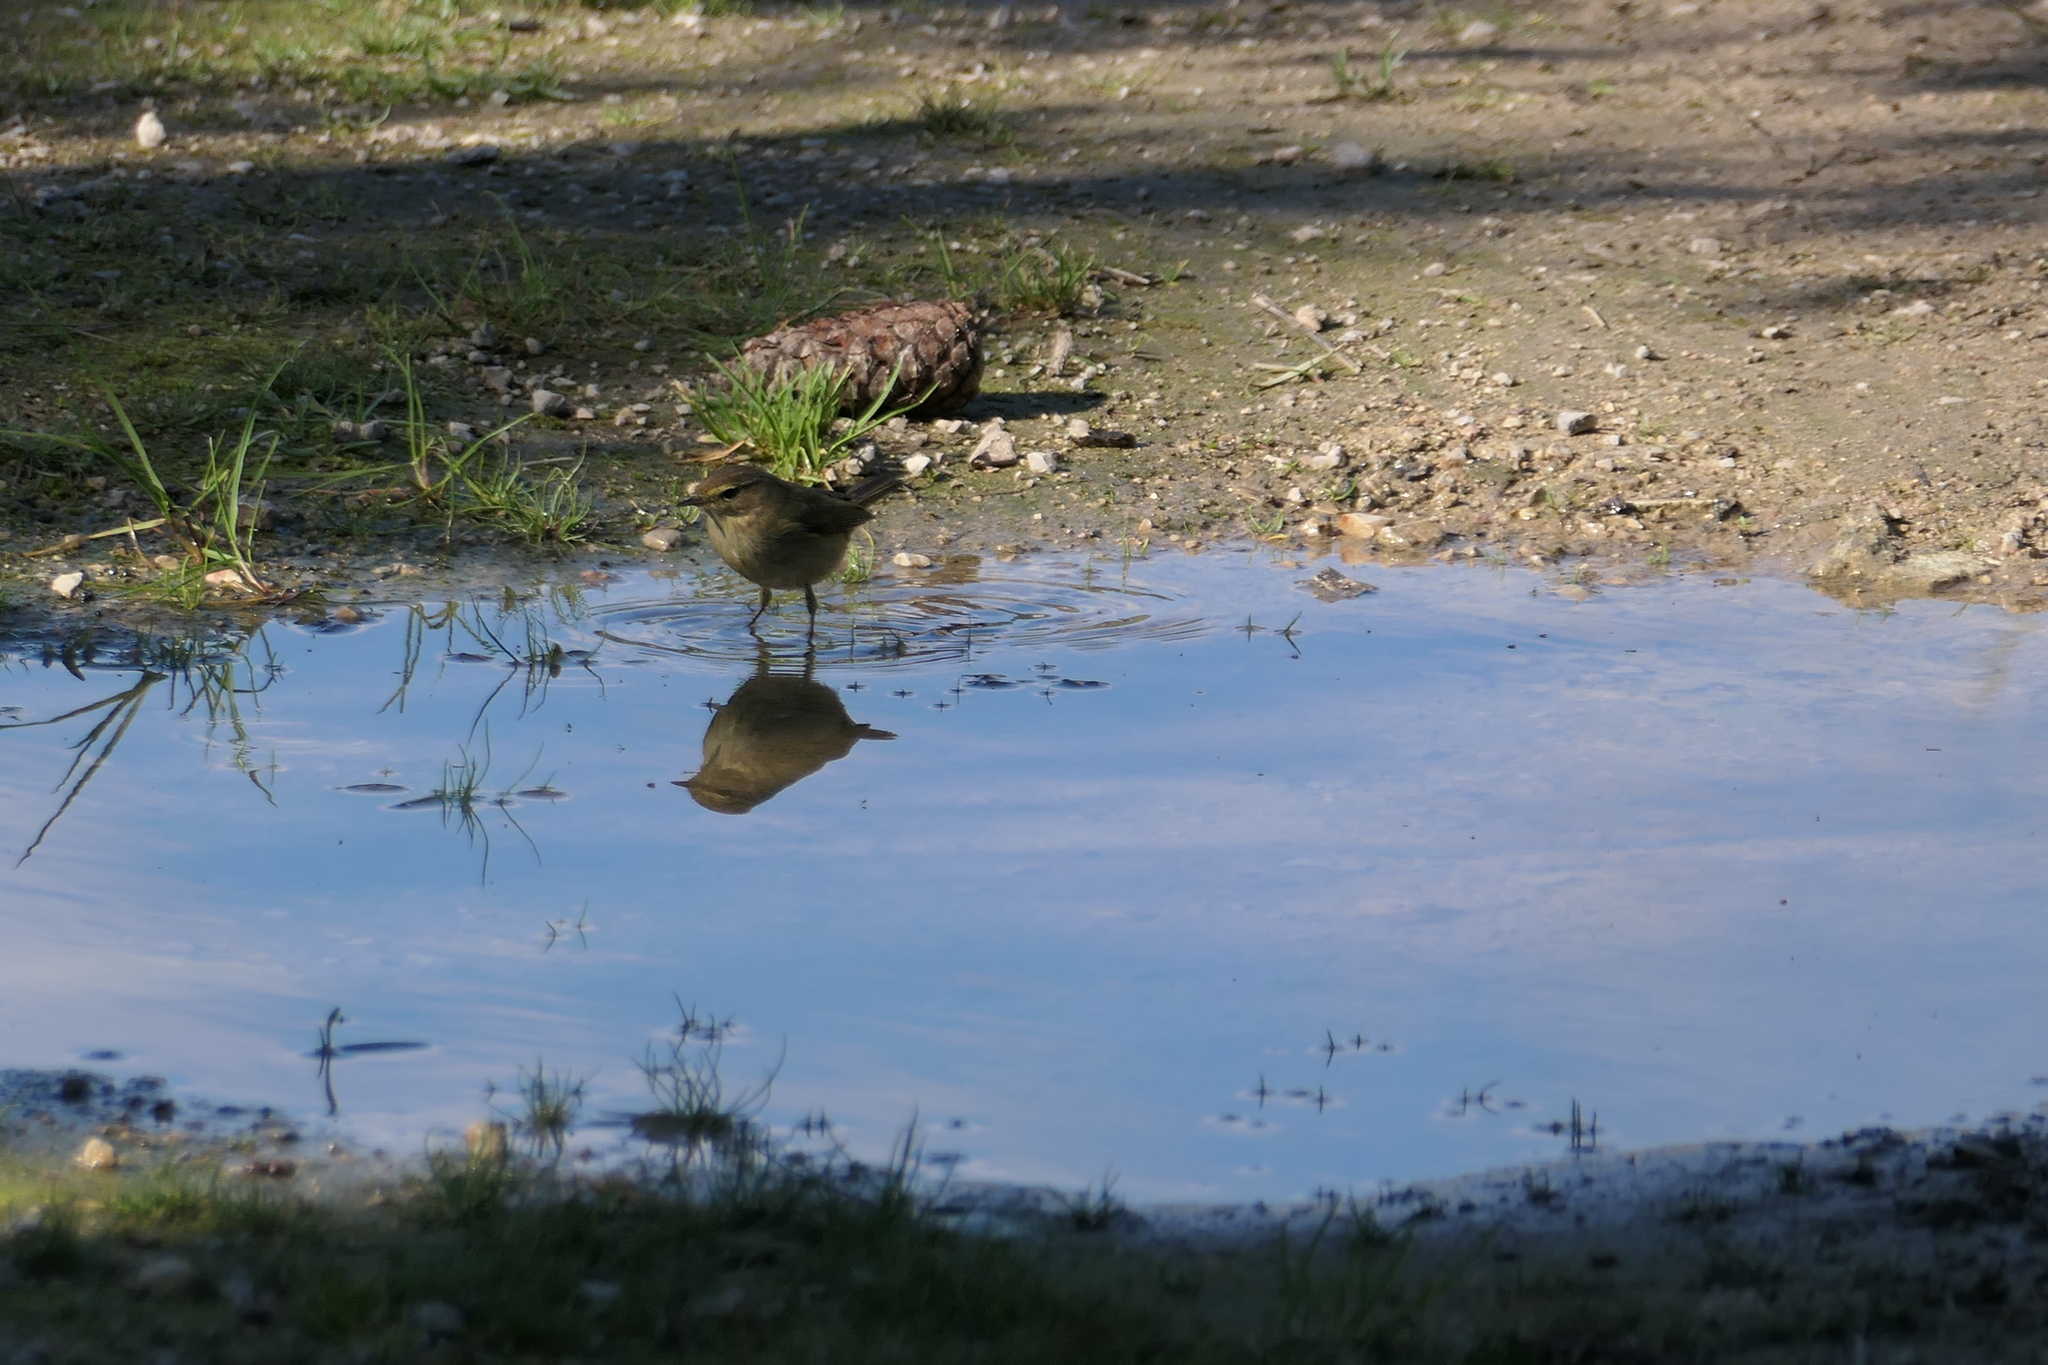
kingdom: Animalia
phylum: Chordata
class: Aves
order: Passeriformes
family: Phylloscopidae
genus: Phylloscopus
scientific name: Phylloscopus collybita
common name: Common chiffchaff
